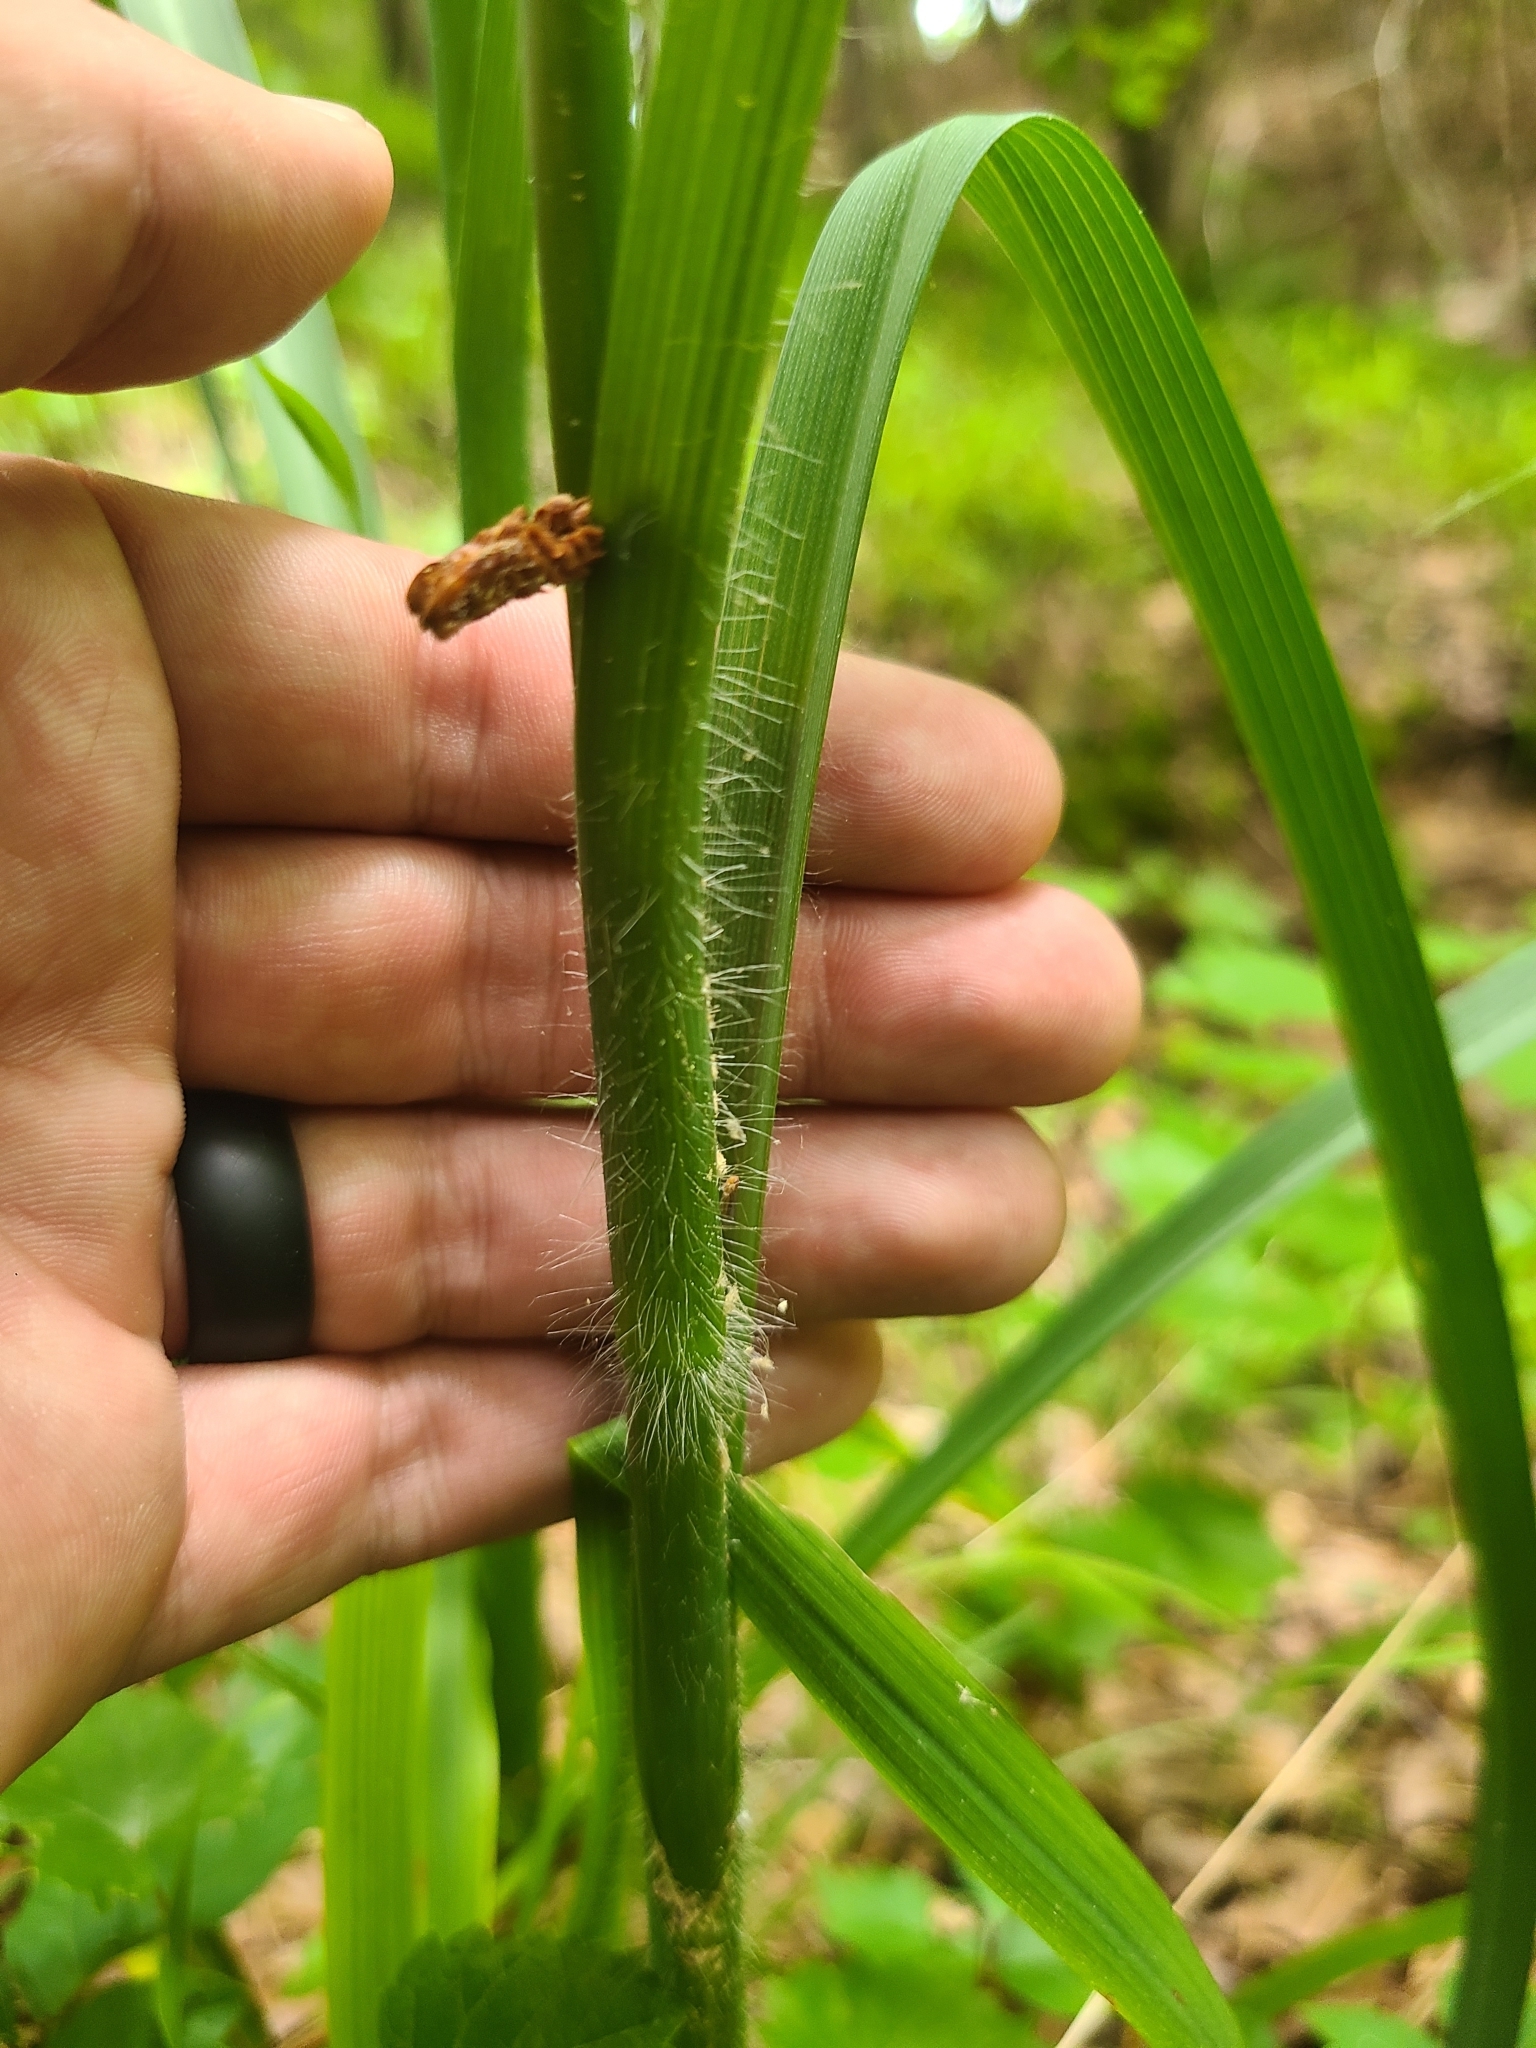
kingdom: Plantae
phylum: Tracheophyta
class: Liliopsida
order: Commelinales
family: Commelinaceae
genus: Tradescantia
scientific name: Tradescantia hirsutiflora
